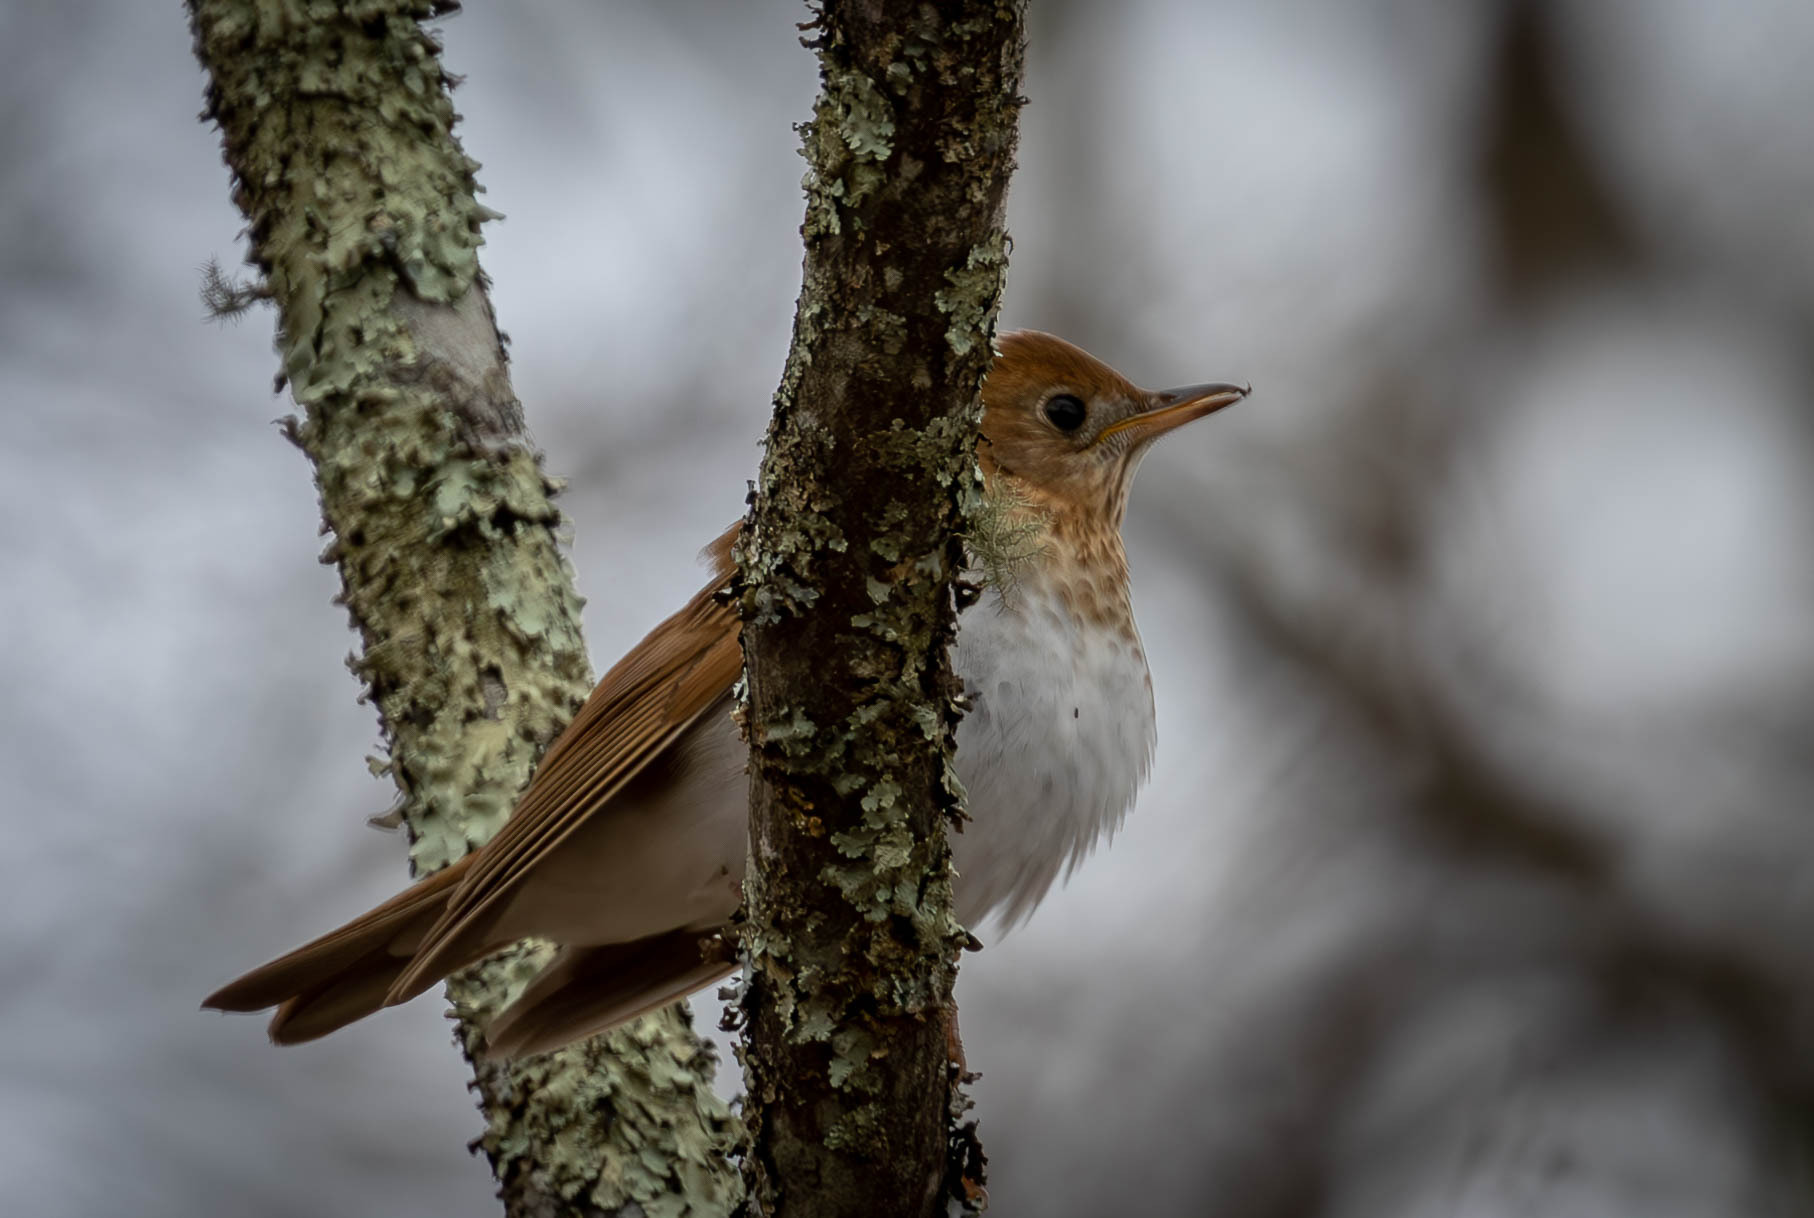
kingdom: Animalia
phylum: Chordata
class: Aves
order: Passeriformes
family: Turdidae
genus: Catharus
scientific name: Catharus fuscescens
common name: Veery
